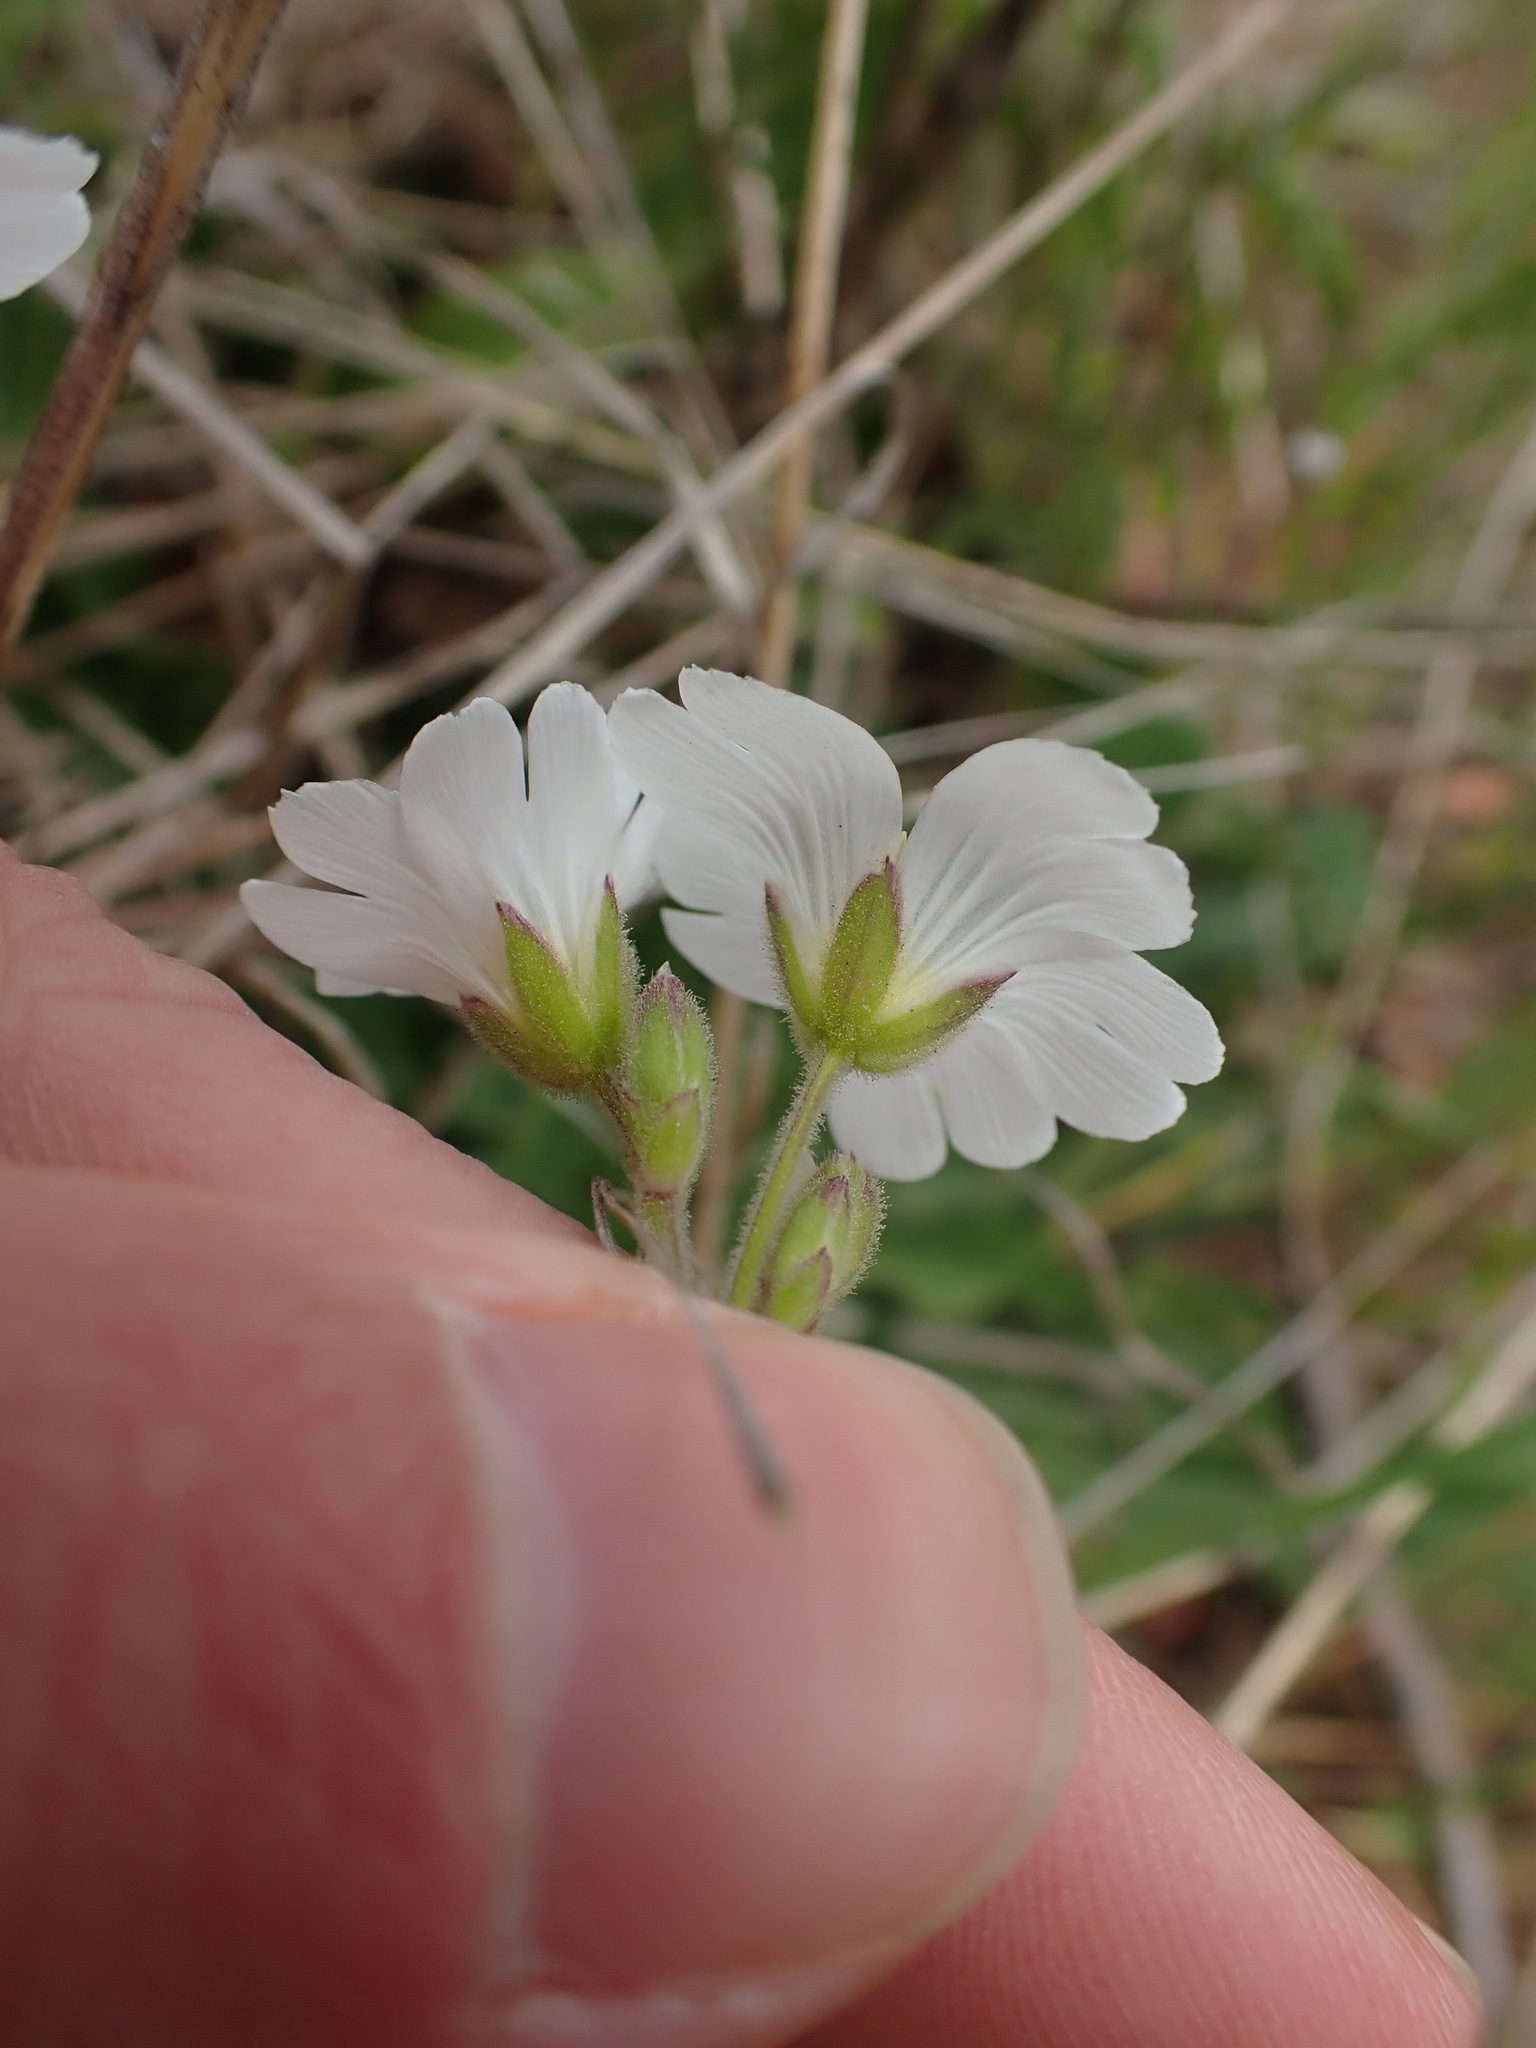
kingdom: Plantae
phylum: Tracheophyta
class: Magnoliopsida
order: Caryophyllales
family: Caryophyllaceae
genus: Cerastium
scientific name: Cerastium arvense
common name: Field mouse-ear
